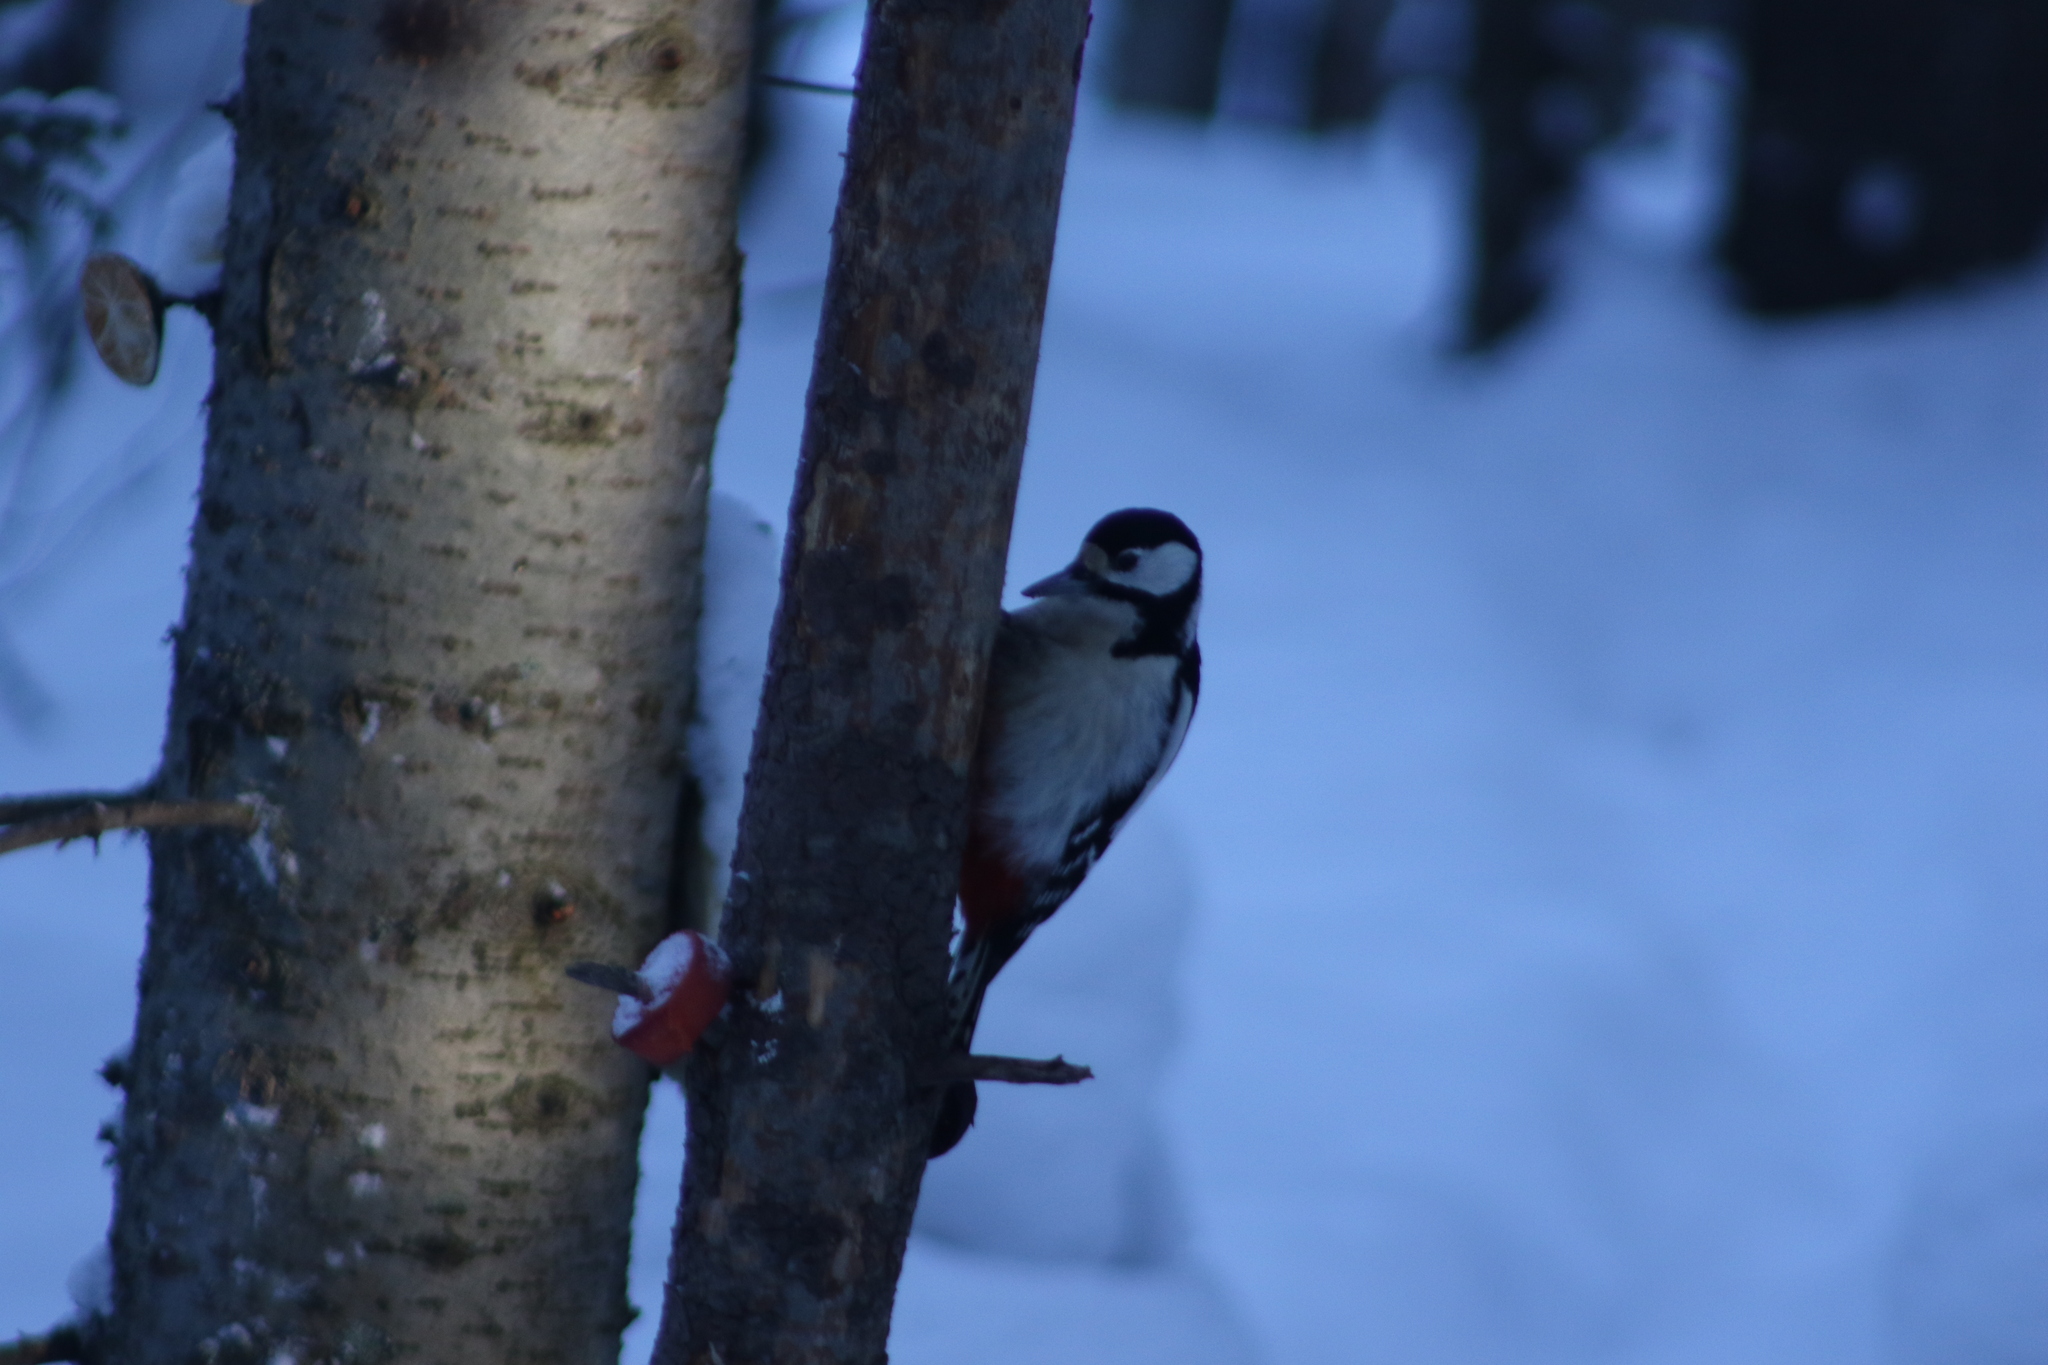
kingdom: Animalia
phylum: Chordata
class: Aves
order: Piciformes
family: Picidae
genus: Dendrocopos
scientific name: Dendrocopos major
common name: Great spotted woodpecker
